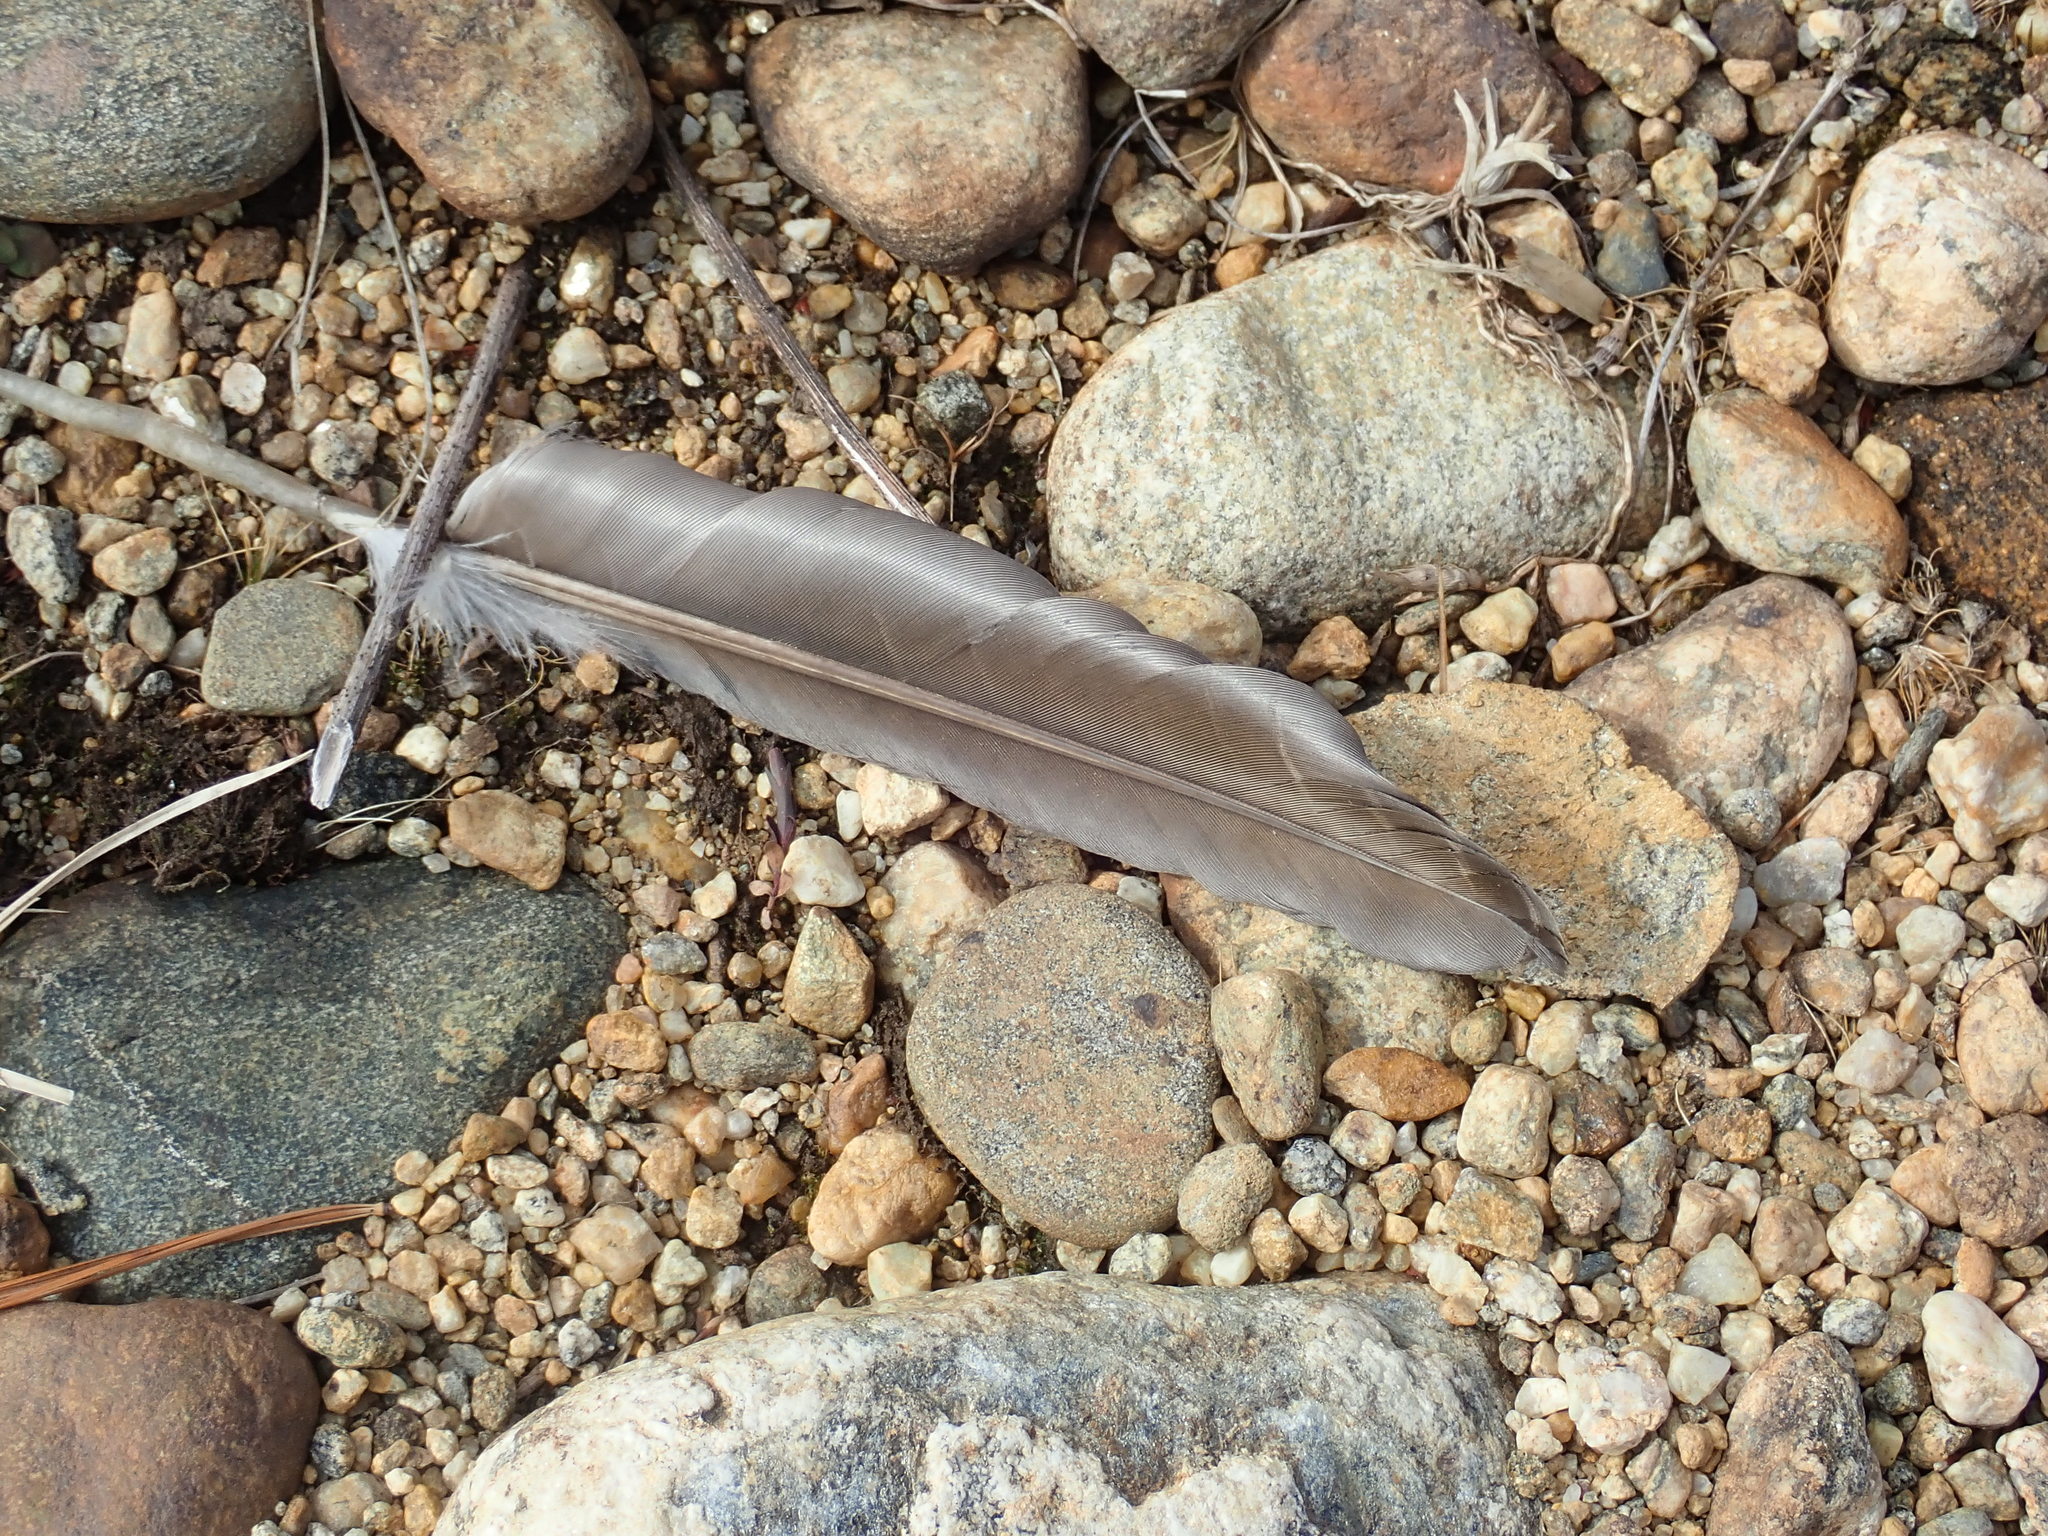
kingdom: Animalia
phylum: Chordata
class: Aves
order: Anseriformes
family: Anatidae
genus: Branta
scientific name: Branta canadensis
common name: Canada goose
